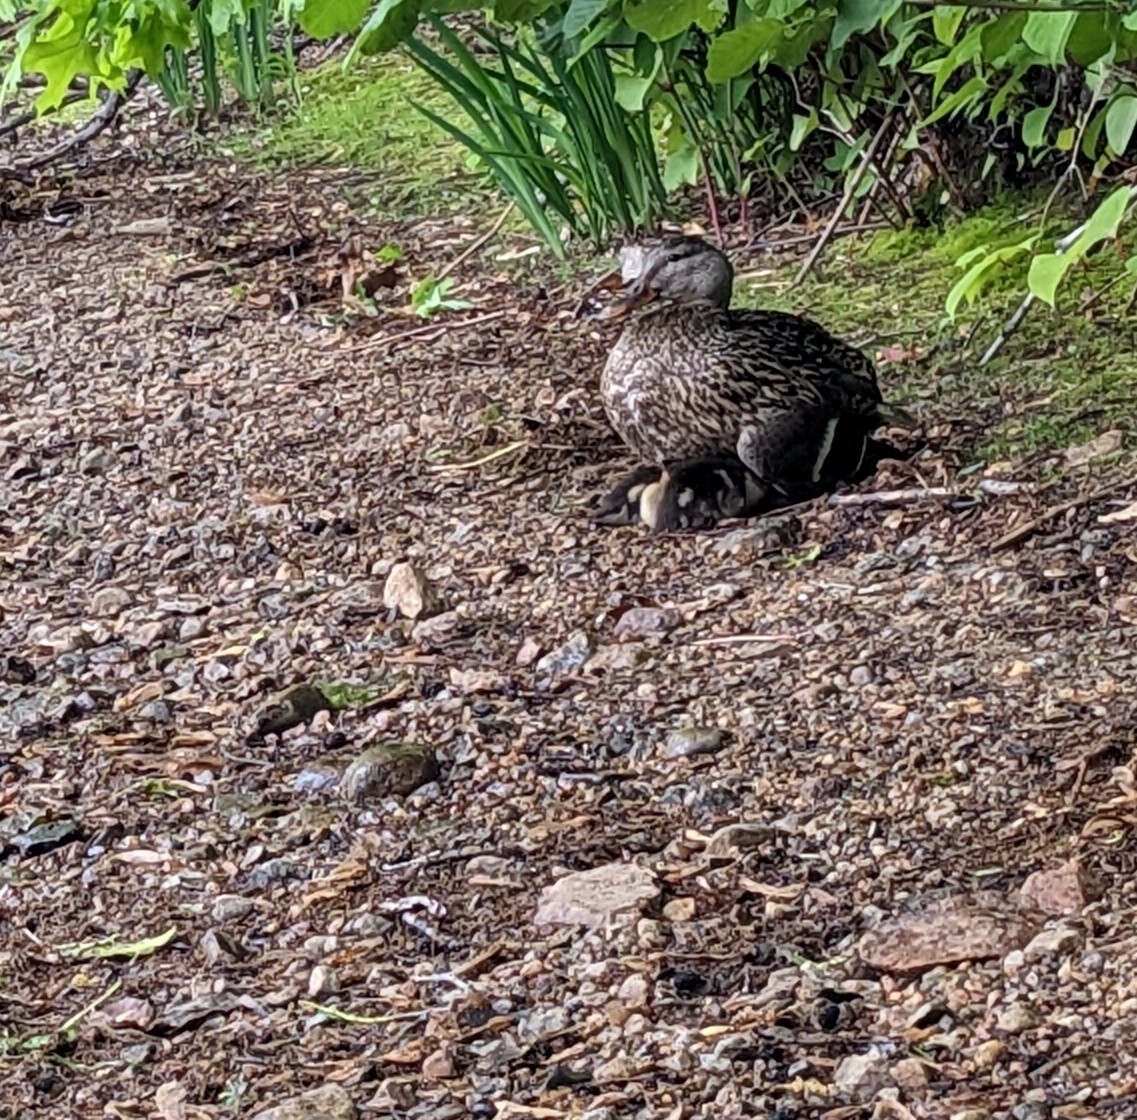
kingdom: Animalia
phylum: Chordata
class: Aves
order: Anseriformes
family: Anatidae
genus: Anas
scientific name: Anas platyrhynchos
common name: Mallard
